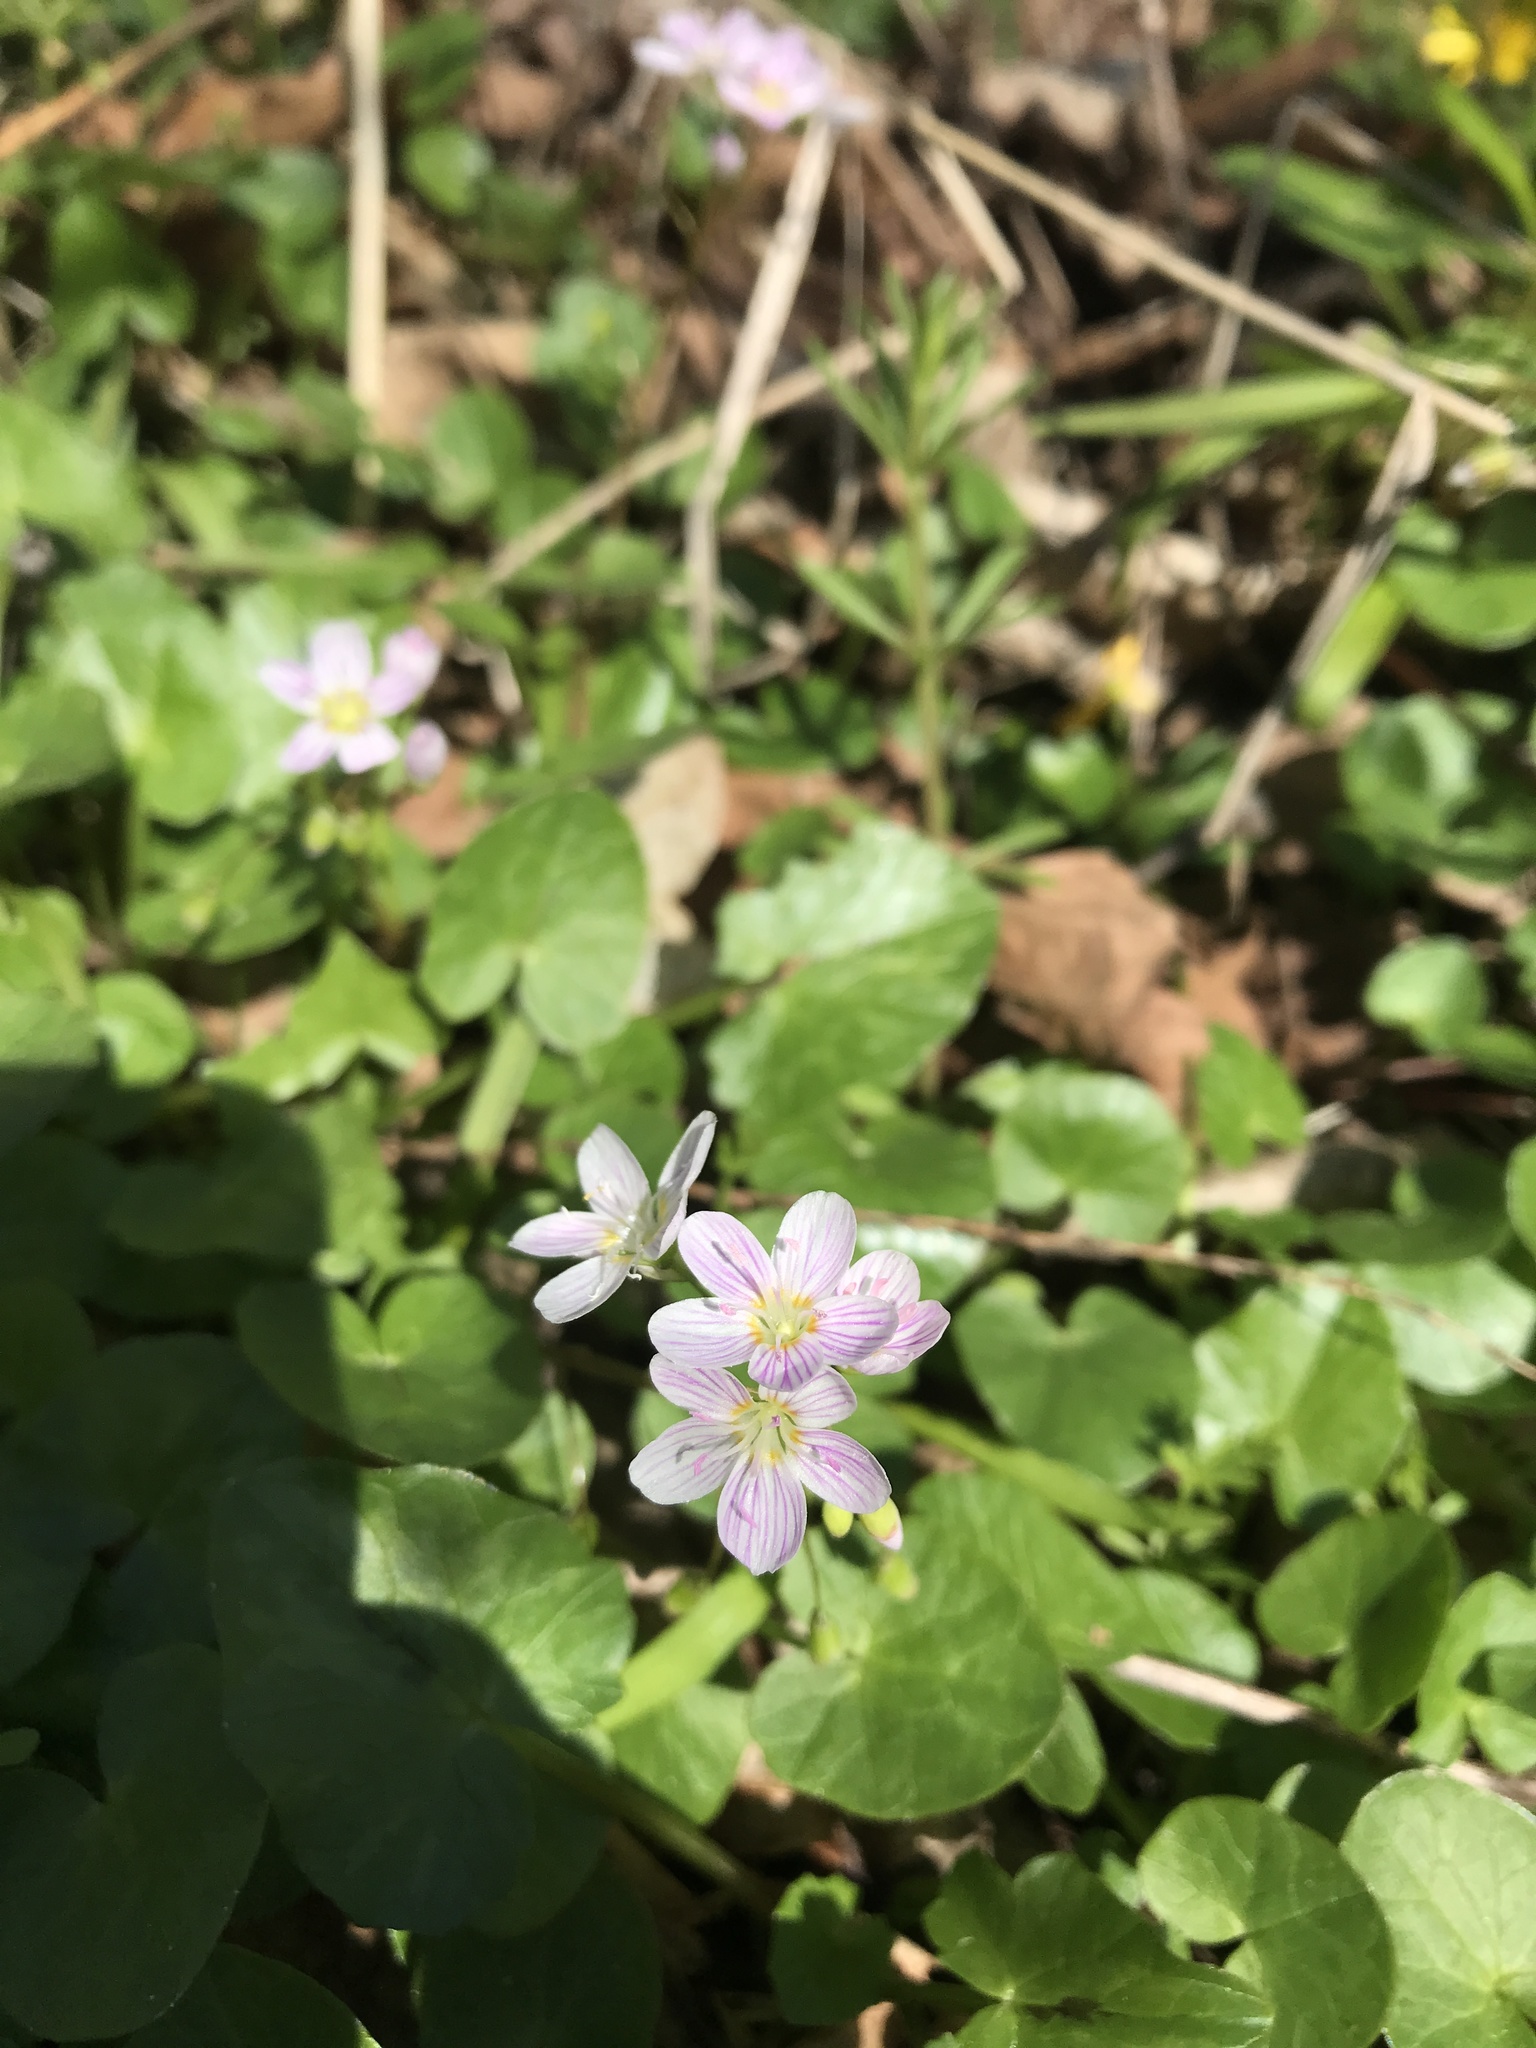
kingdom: Plantae
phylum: Tracheophyta
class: Magnoliopsida
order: Caryophyllales
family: Montiaceae
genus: Claytonia
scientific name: Claytonia virginica
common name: Virginia springbeauty
